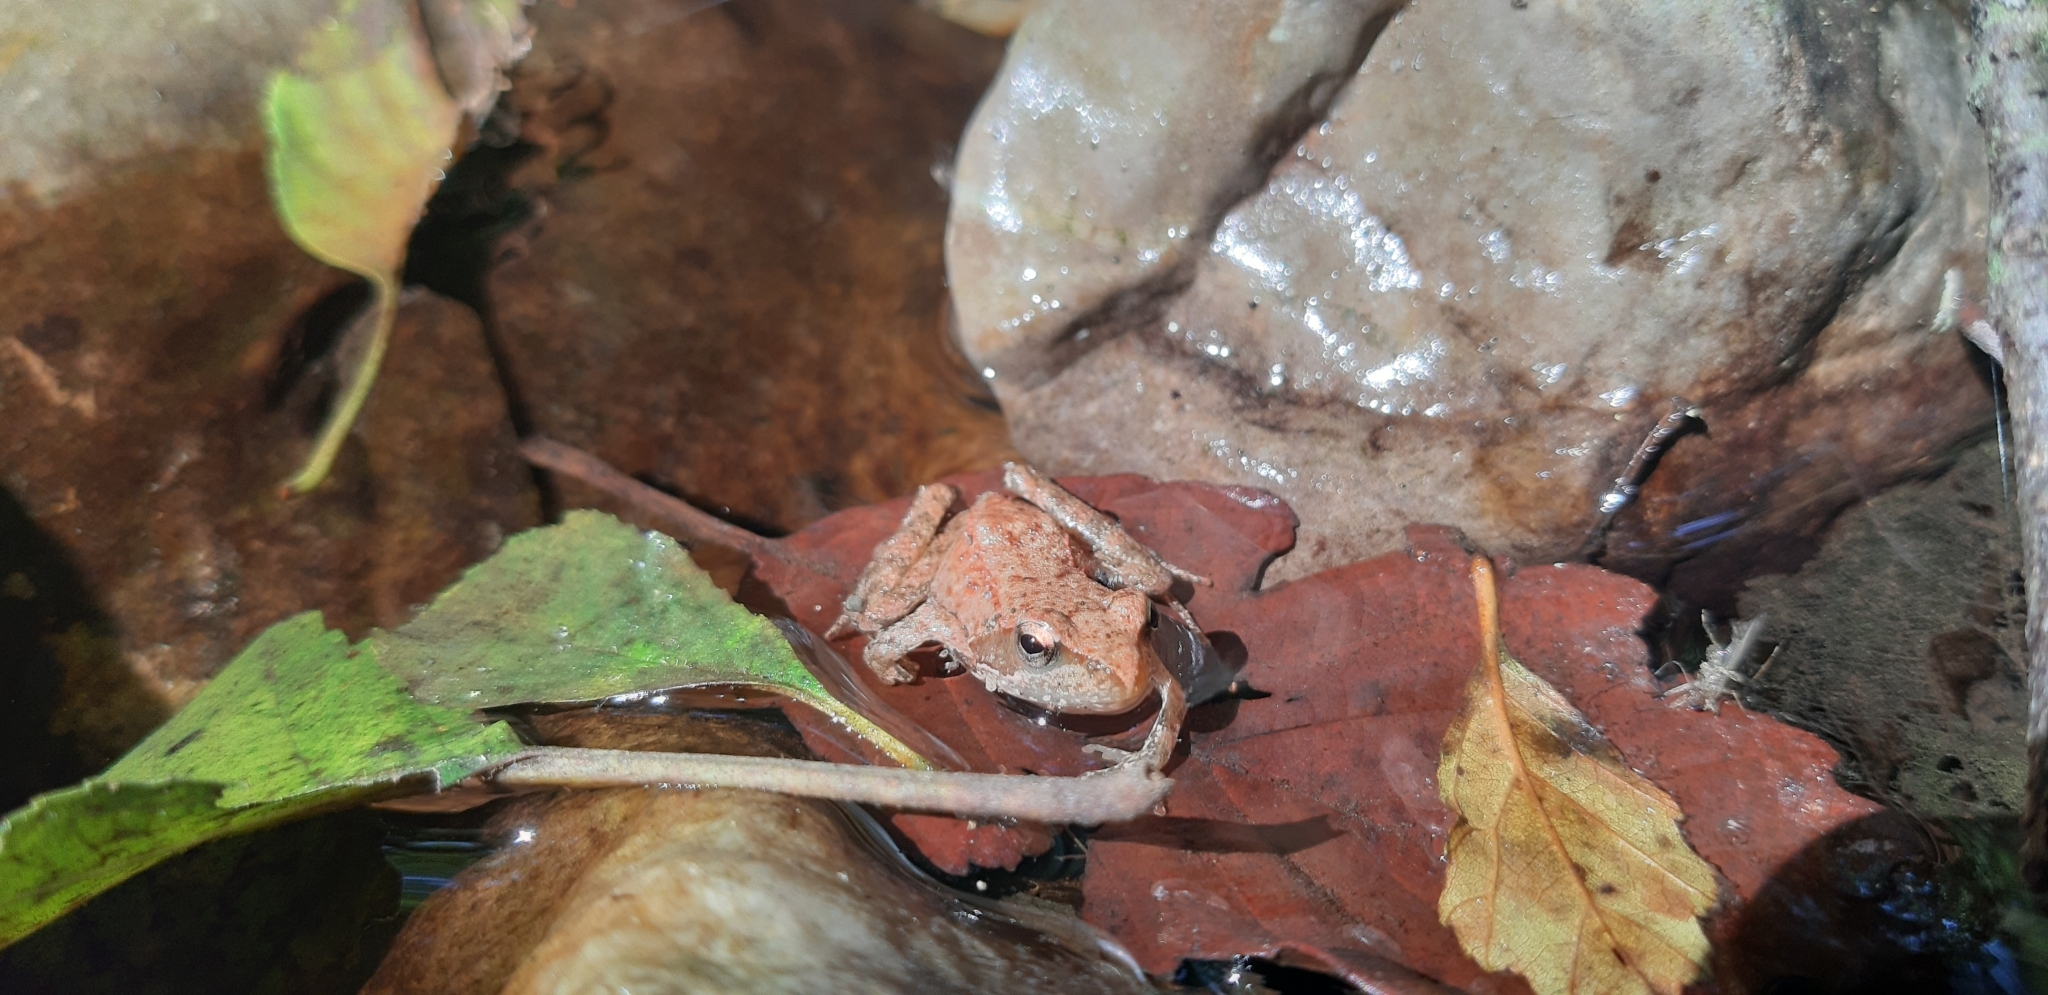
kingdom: Animalia
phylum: Chordata
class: Amphibia
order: Anura
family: Ranidae
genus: Rana
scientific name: Rana italica
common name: Italian stream frog
